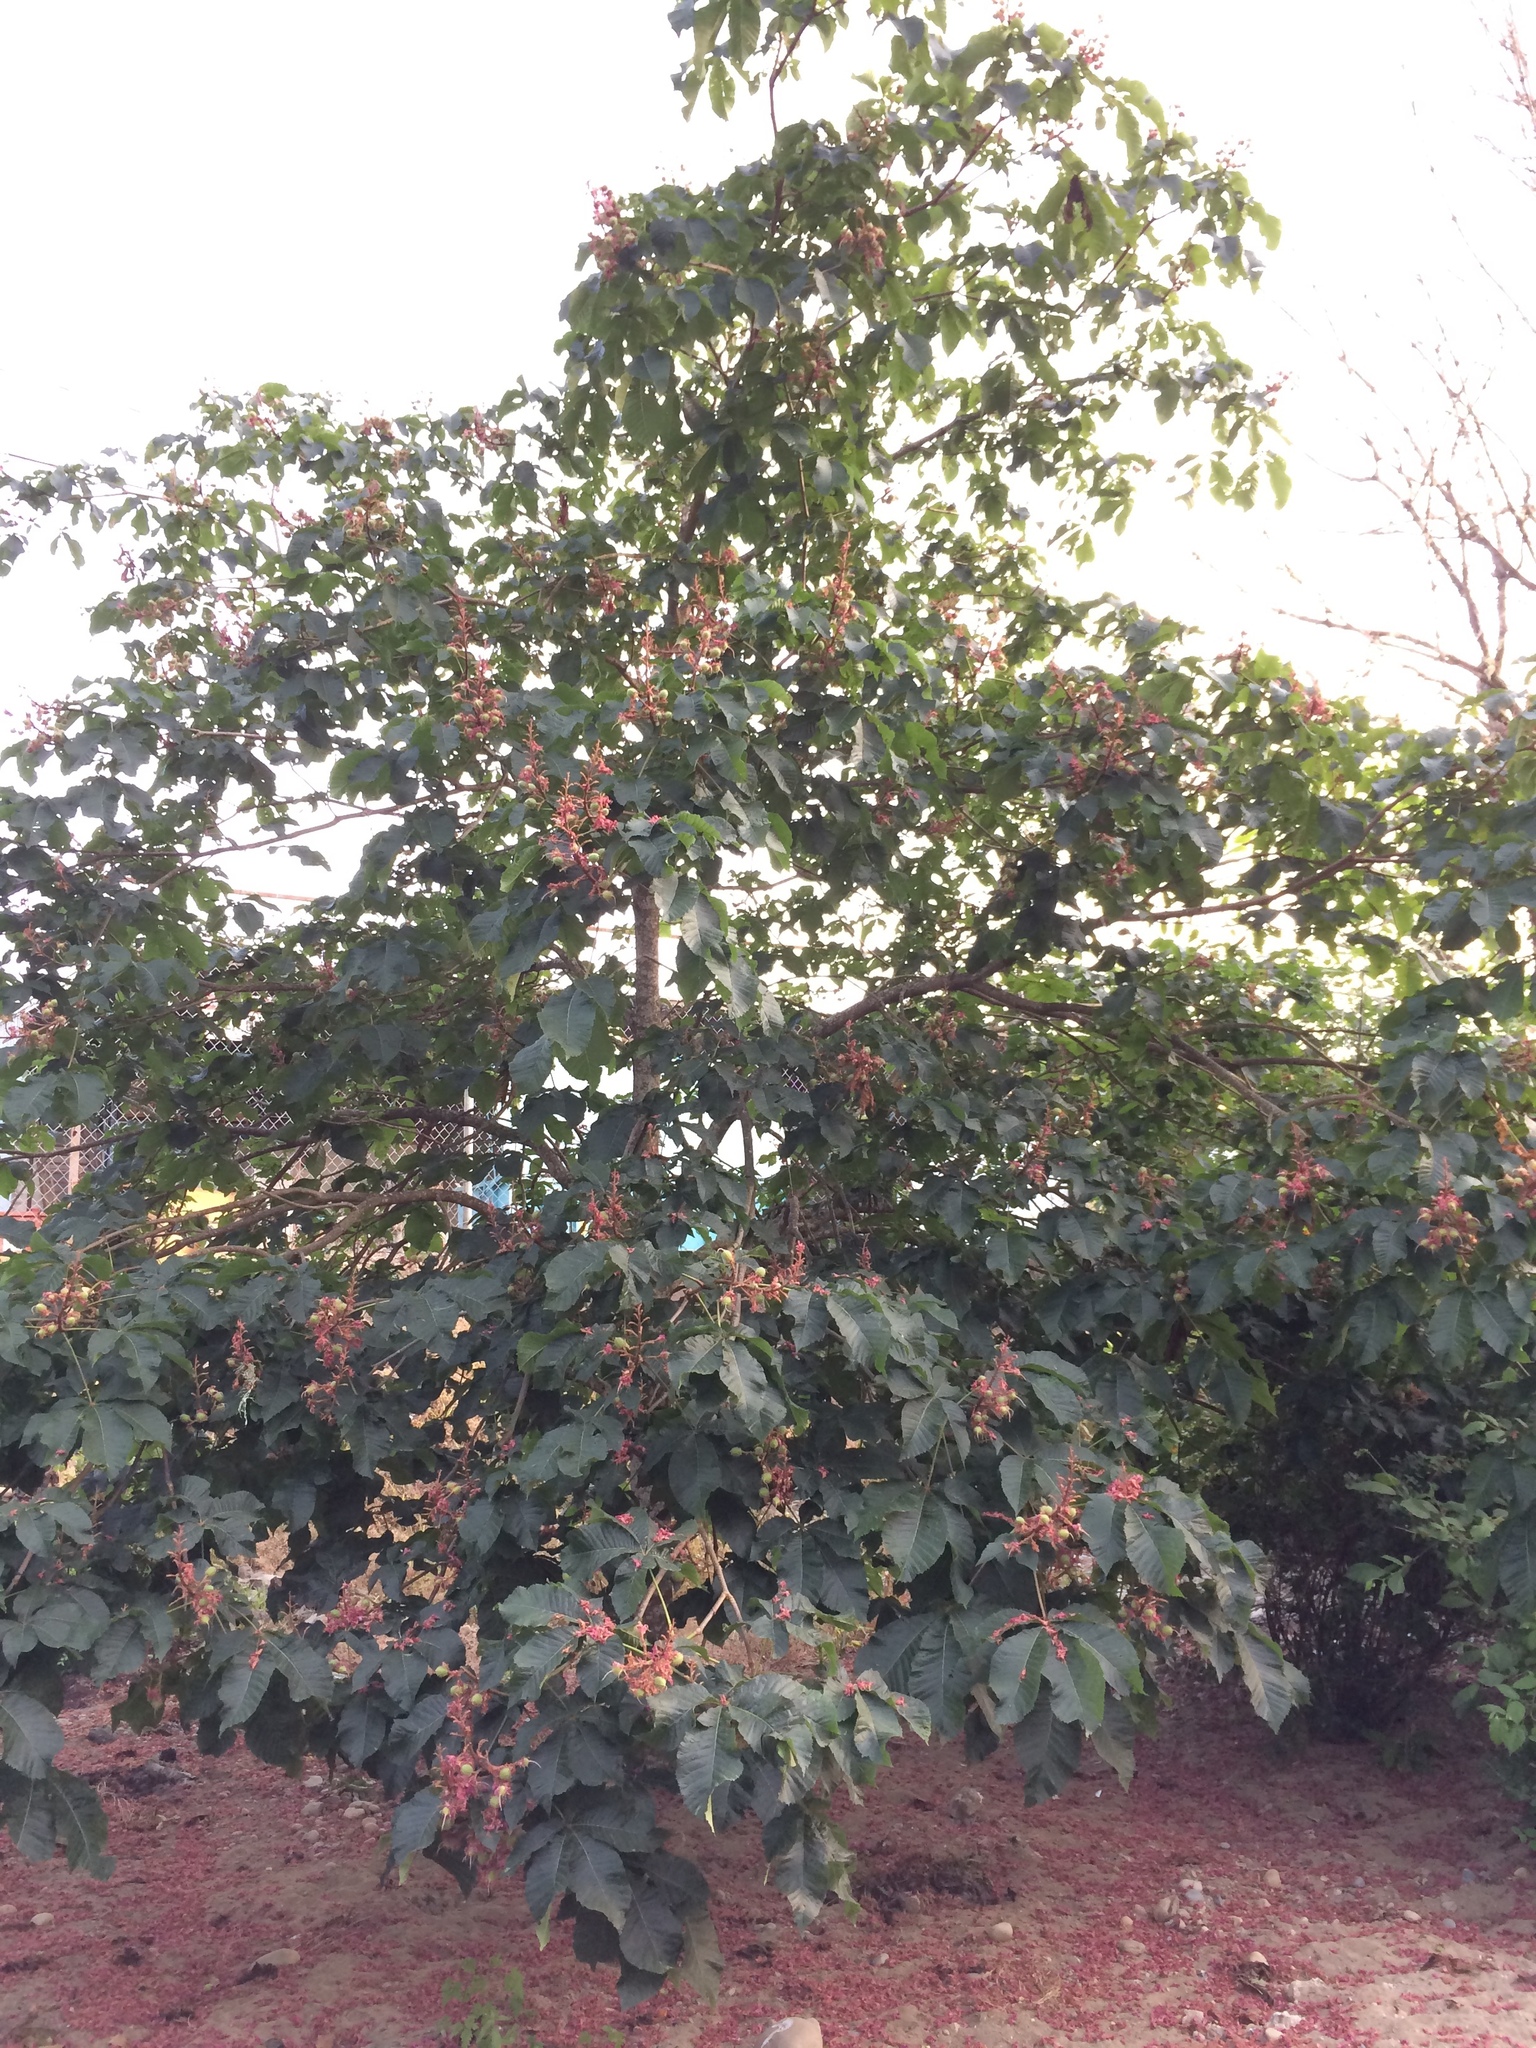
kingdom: Plantae
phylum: Tracheophyta
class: Magnoliopsida
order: Sapindales
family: Sapindaceae
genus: Aesculus
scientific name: Aesculus hippocastanum
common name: Horse-chestnut
